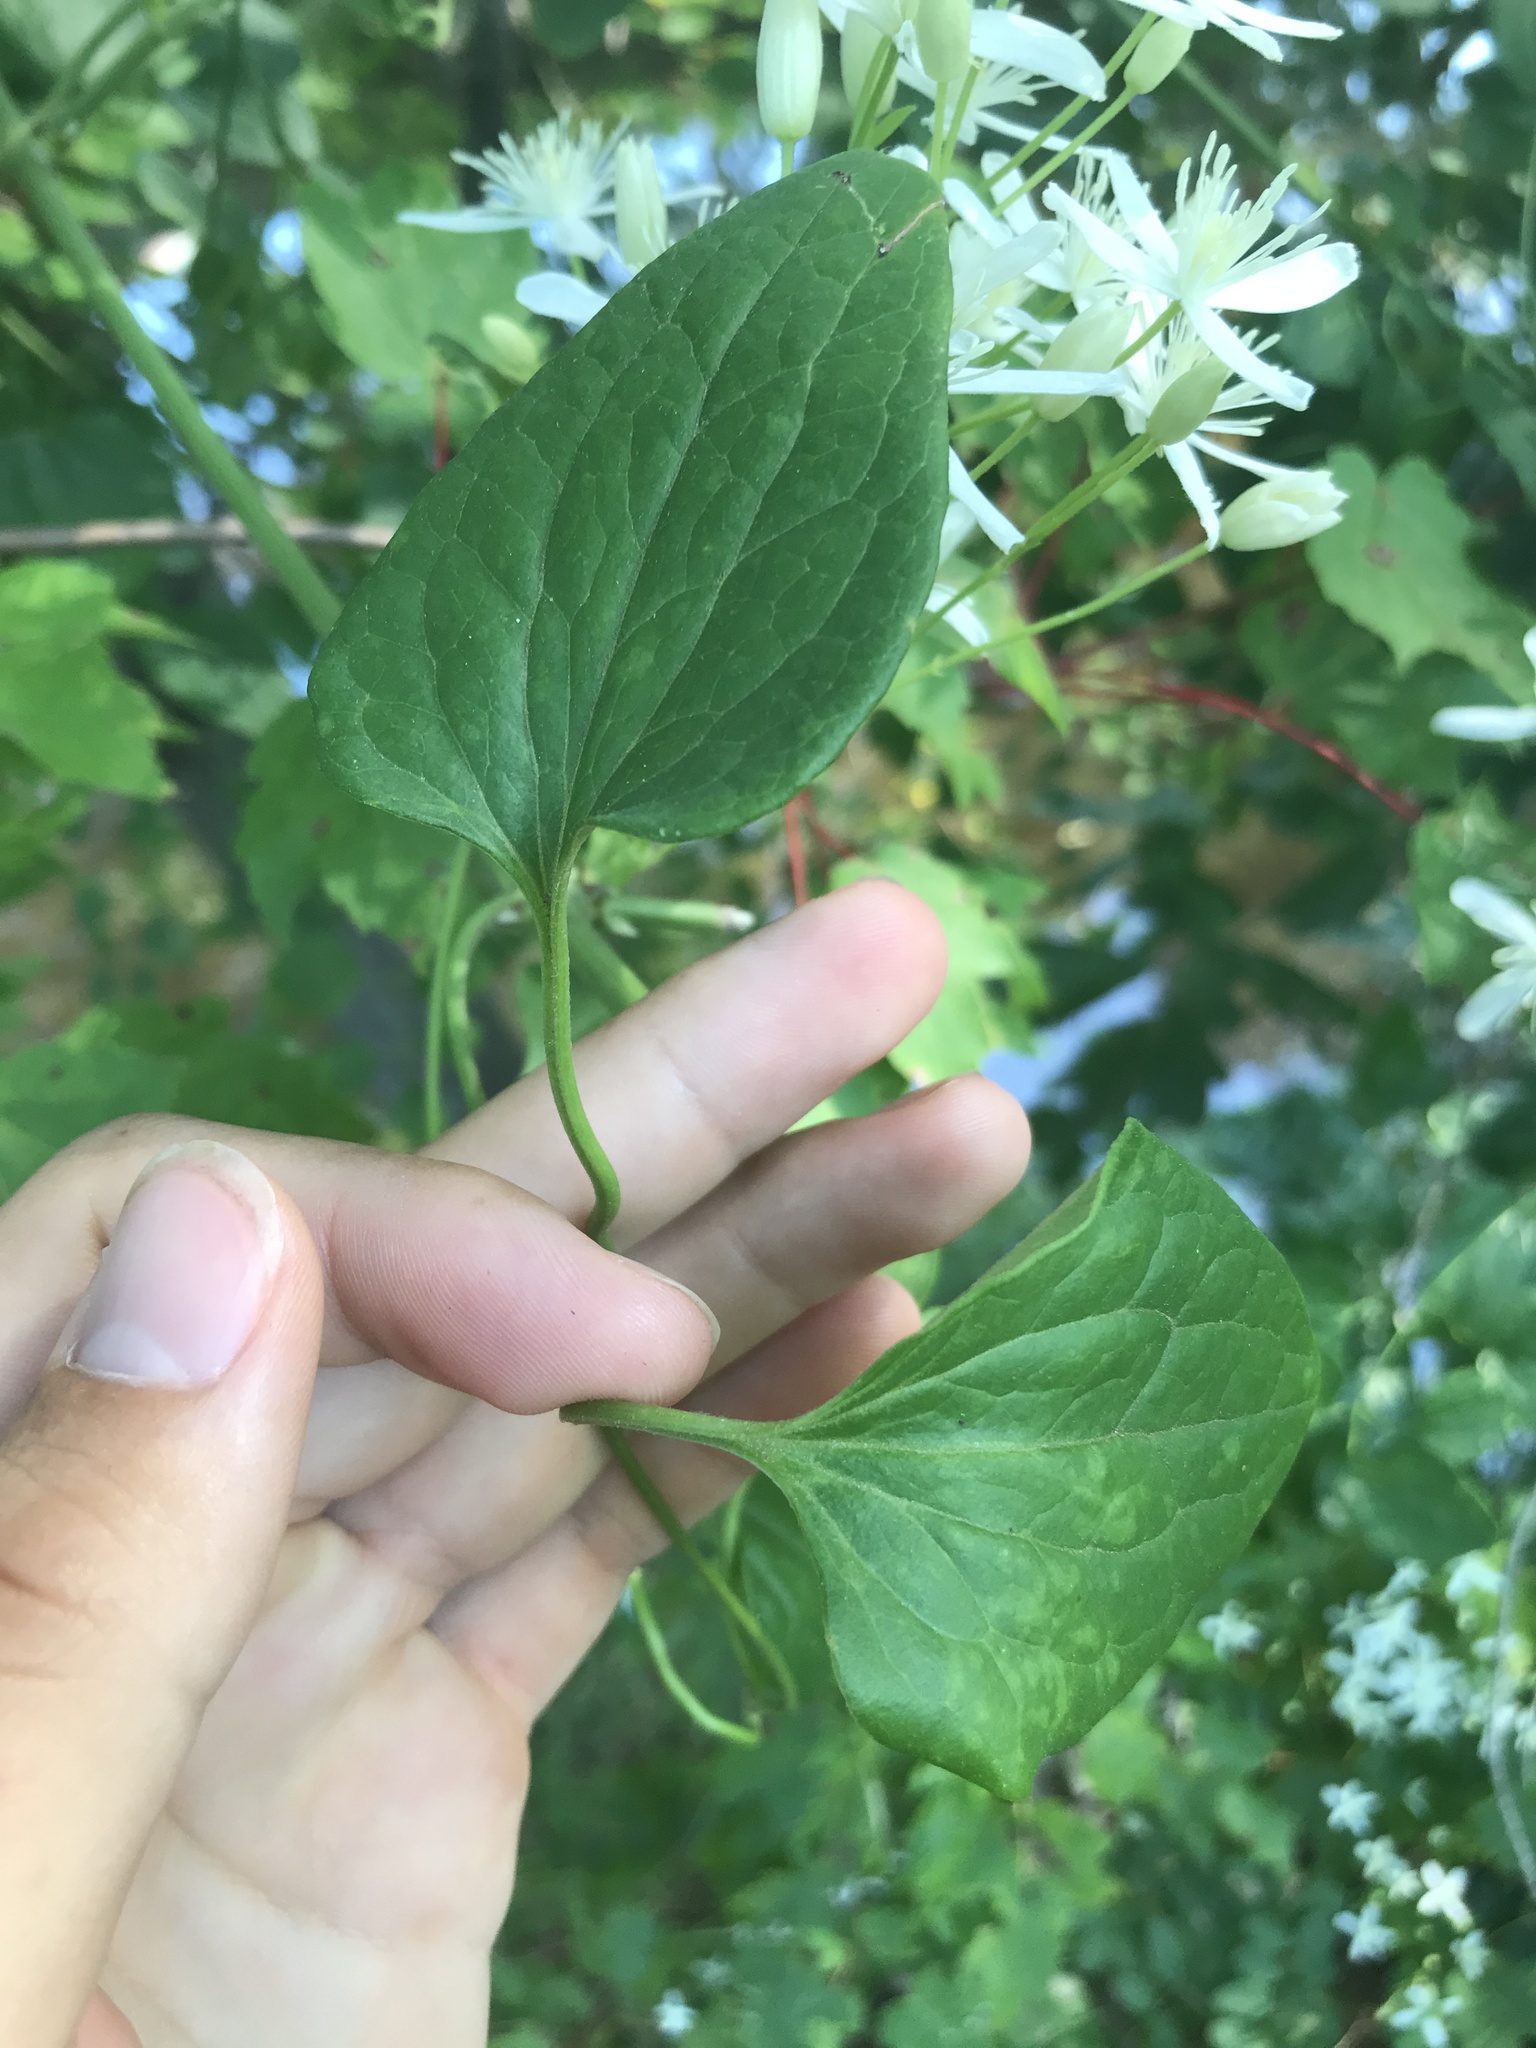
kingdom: Plantae
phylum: Tracheophyta
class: Magnoliopsida
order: Ranunculales
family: Ranunculaceae
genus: Clematis
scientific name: Clematis terniflora
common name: Sweet autumn clematis
